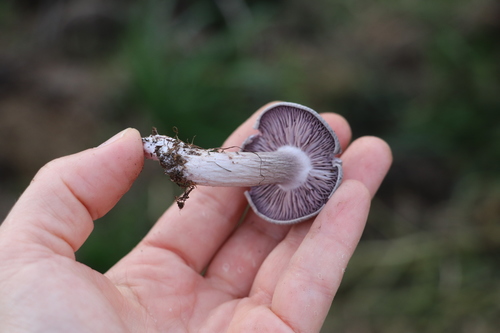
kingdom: Fungi
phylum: Basidiomycota
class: Agaricomycetes
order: Agaricales
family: Lyophyllaceae
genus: Lyophyllum
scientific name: Lyophyllum
